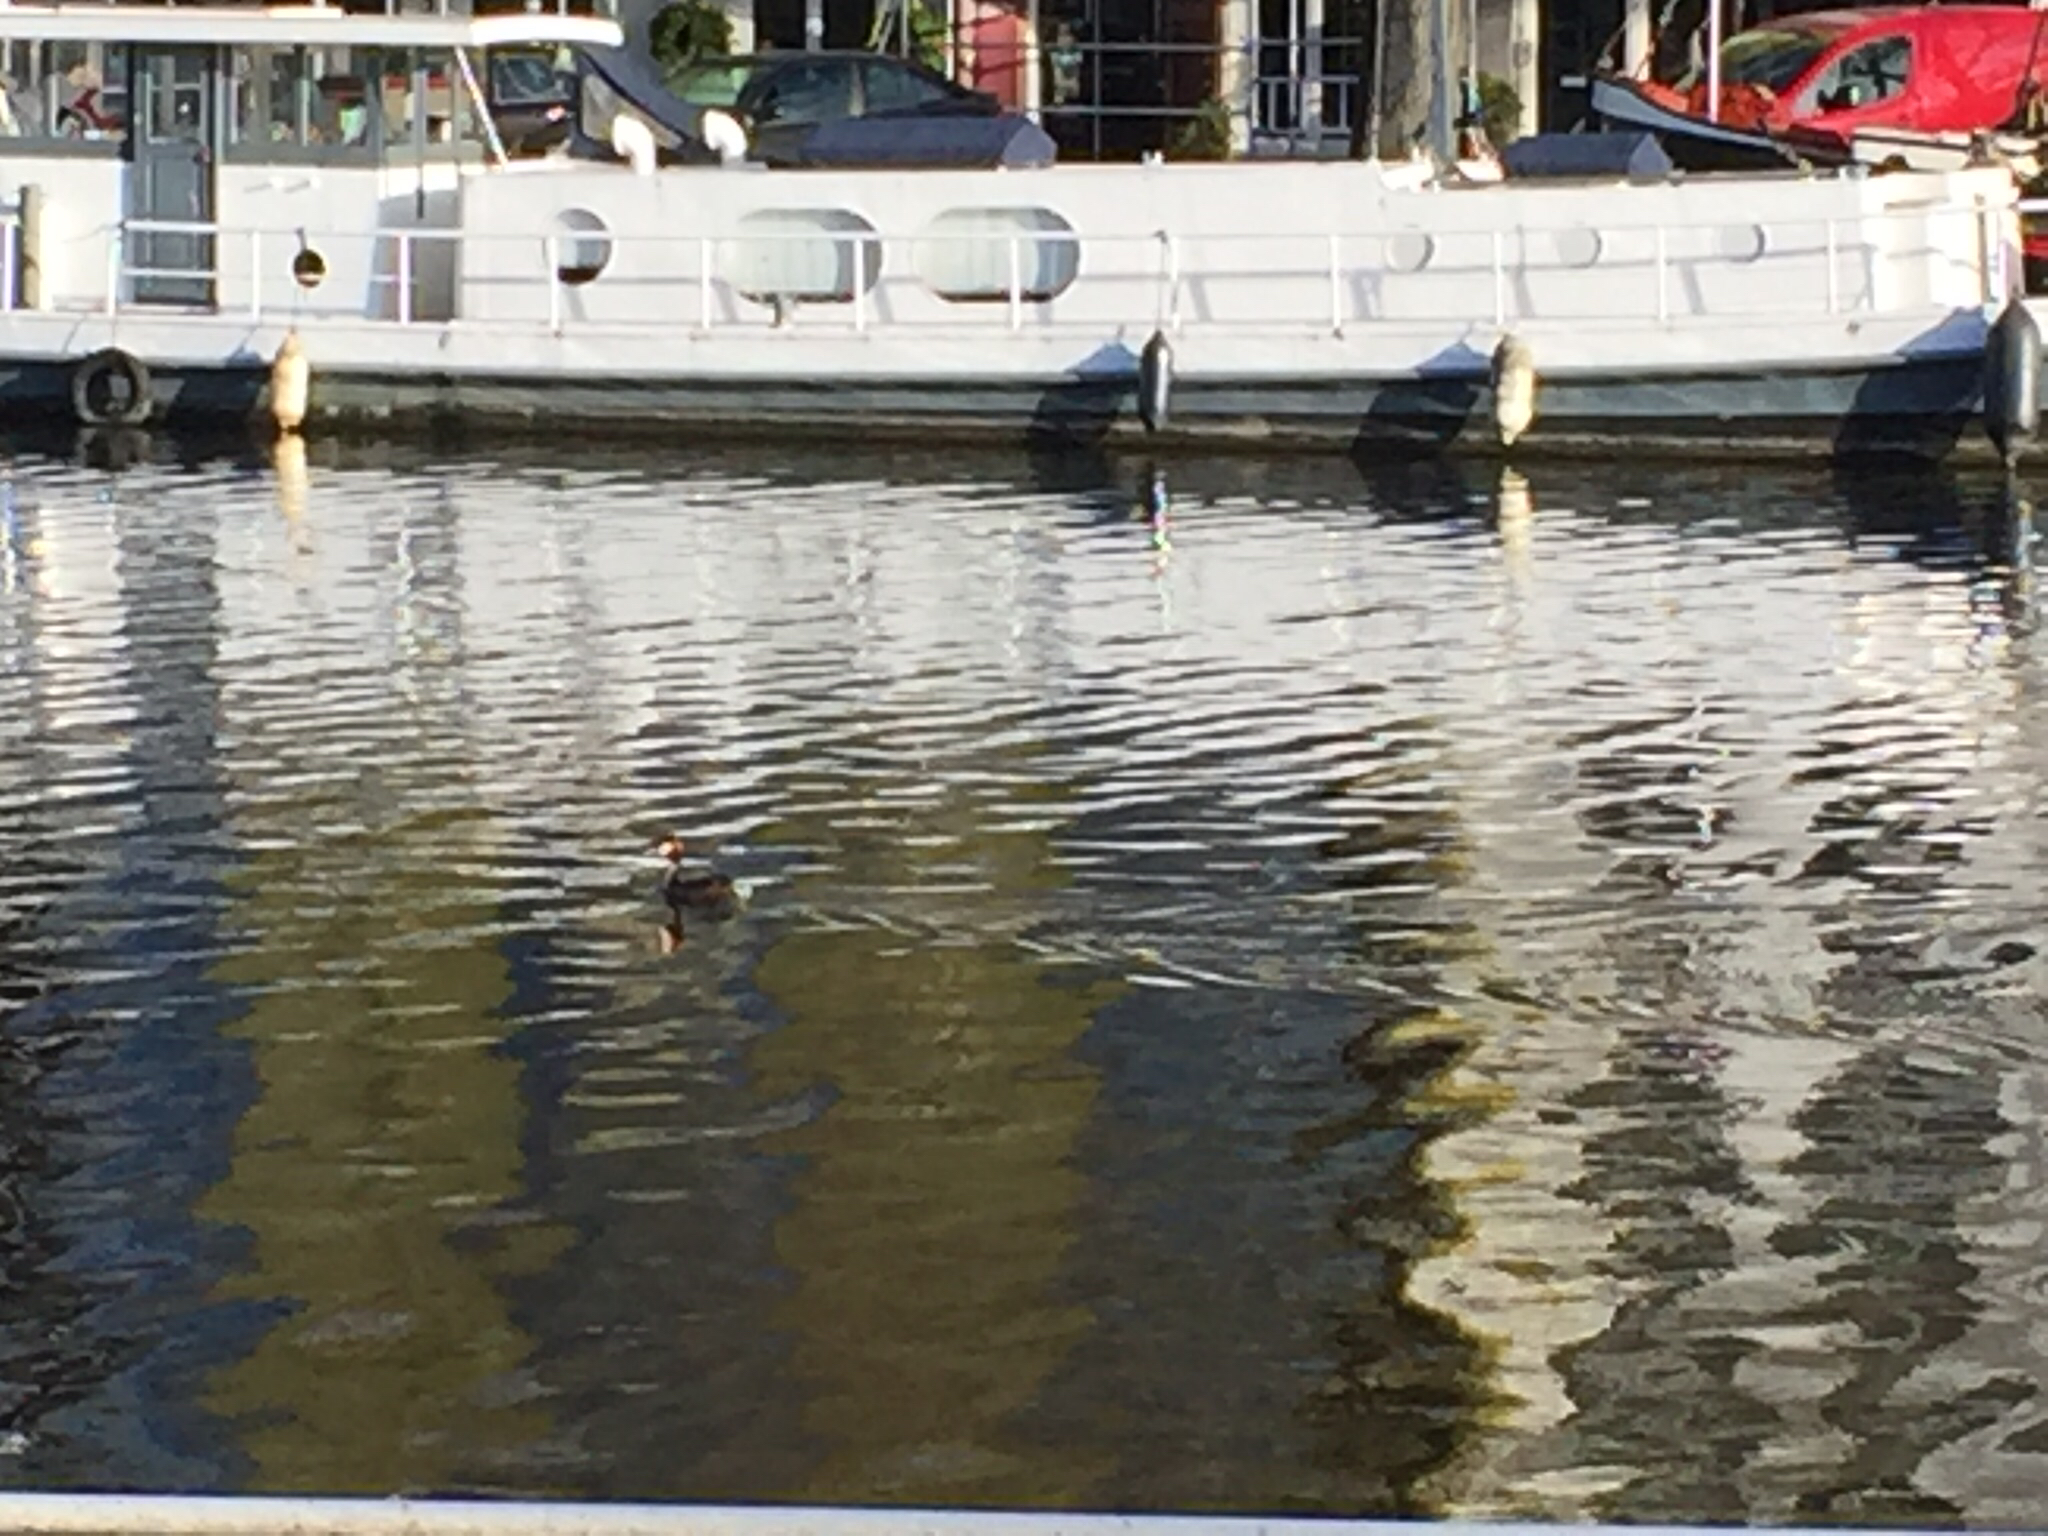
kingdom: Animalia
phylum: Chordata
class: Aves
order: Podicipediformes
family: Podicipedidae
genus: Podiceps
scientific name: Podiceps cristatus
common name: Great crested grebe
